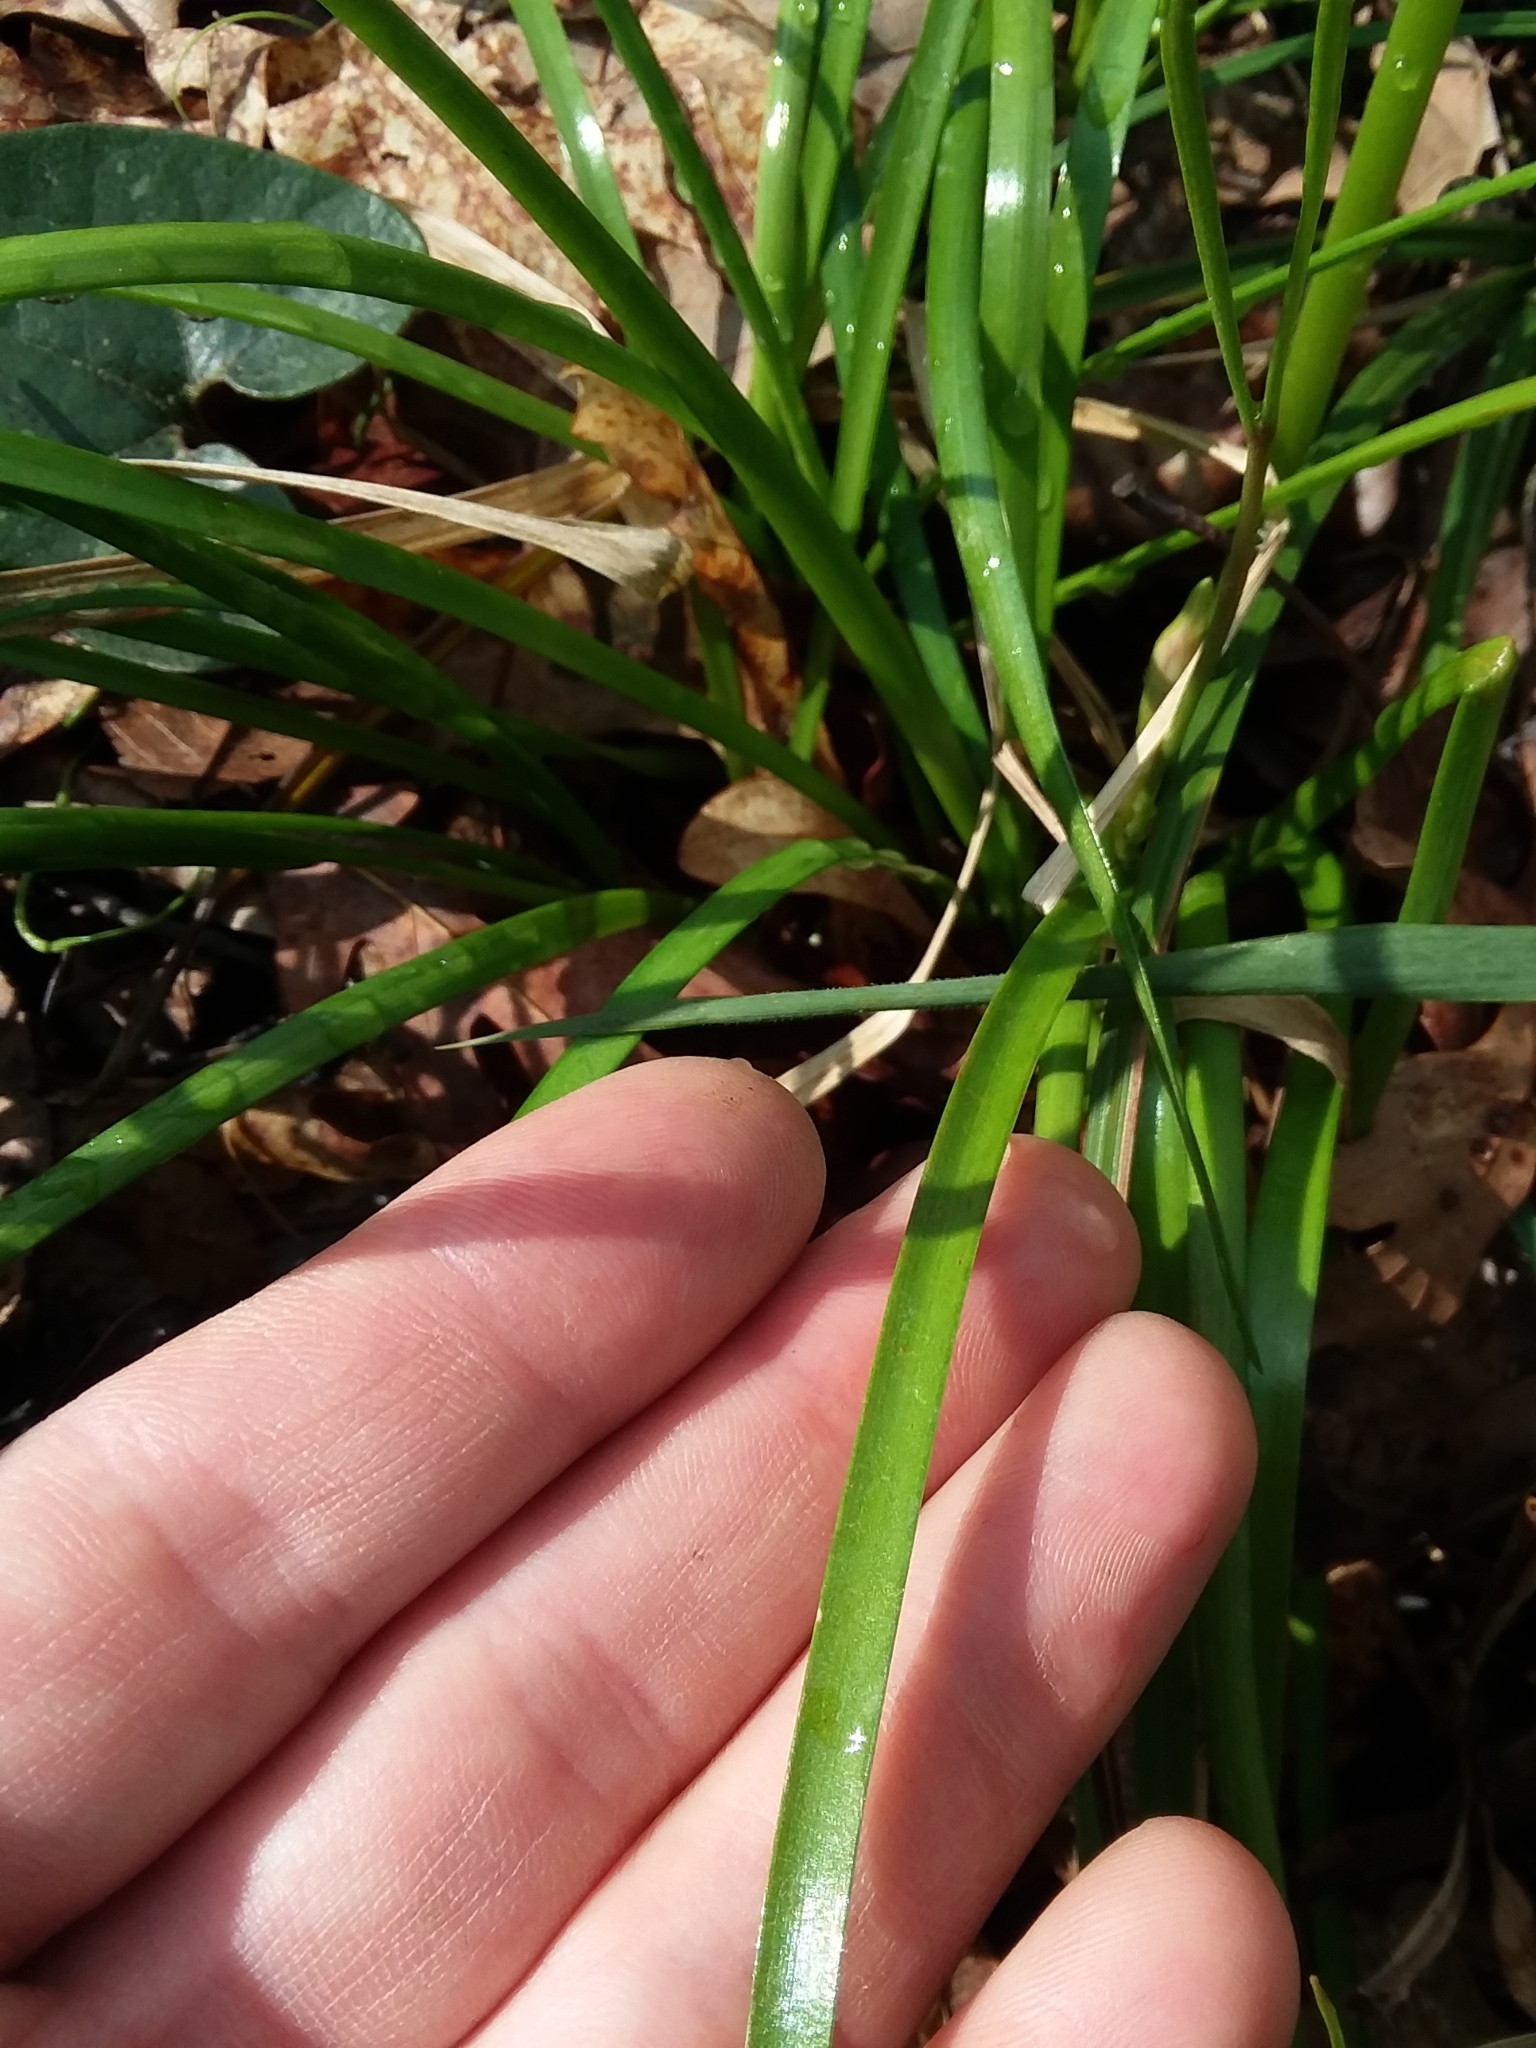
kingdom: Plantae
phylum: Tracheophyta
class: Liliopsida
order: Asparagales
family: Amaryllidaceae
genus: Zephyranthes
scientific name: Zephyranthes atamasco
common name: Atamasco lily
